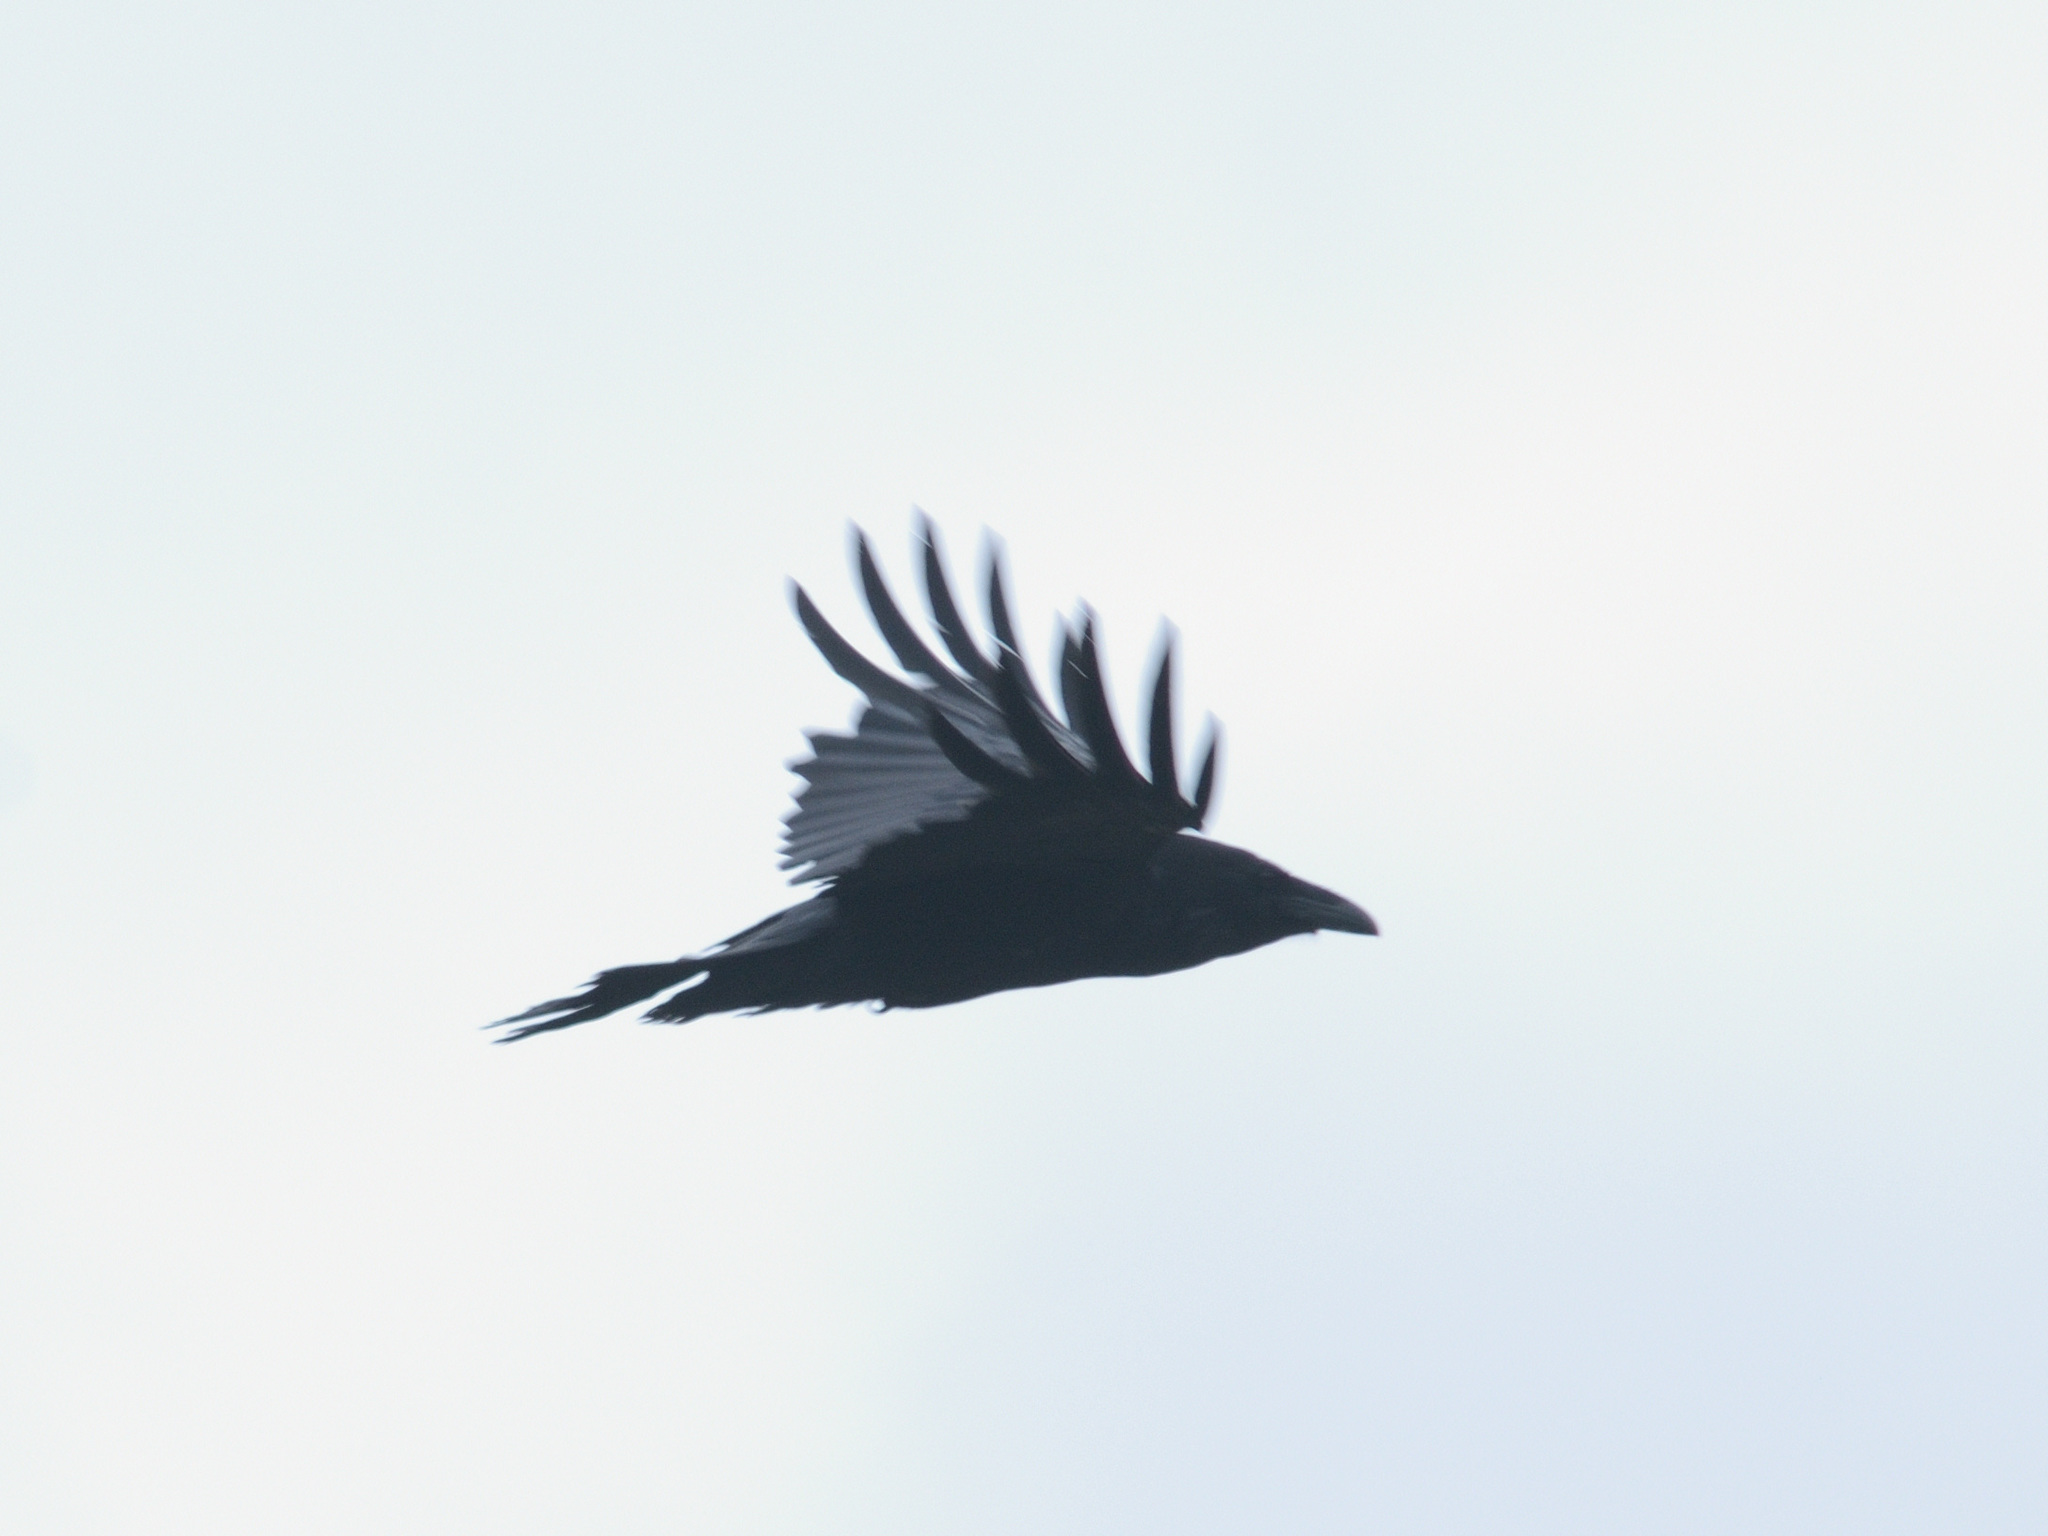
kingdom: Animalia
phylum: Chordata
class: Aves
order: Passeriformes
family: Corvidae
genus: Corvus
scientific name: Corvus corax
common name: Common raven
